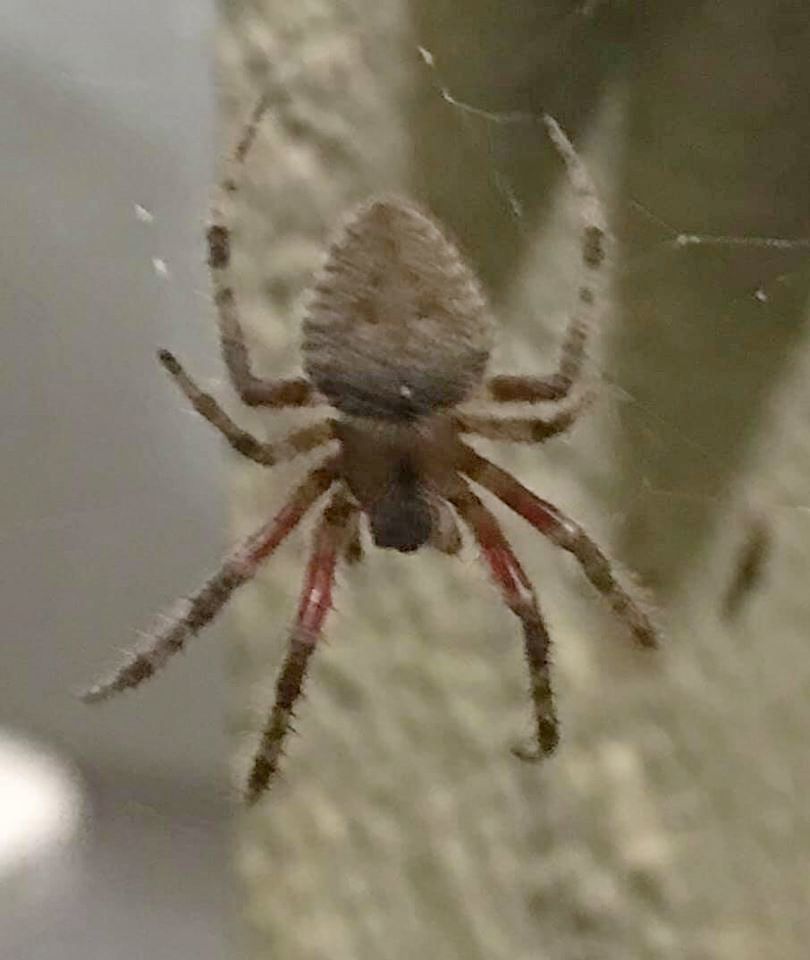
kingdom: Animalia
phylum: Arthropoda
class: Arachnida
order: Araneae
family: Araneidae
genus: Eriophora
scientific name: Eriophora edax
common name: Orb weavers
